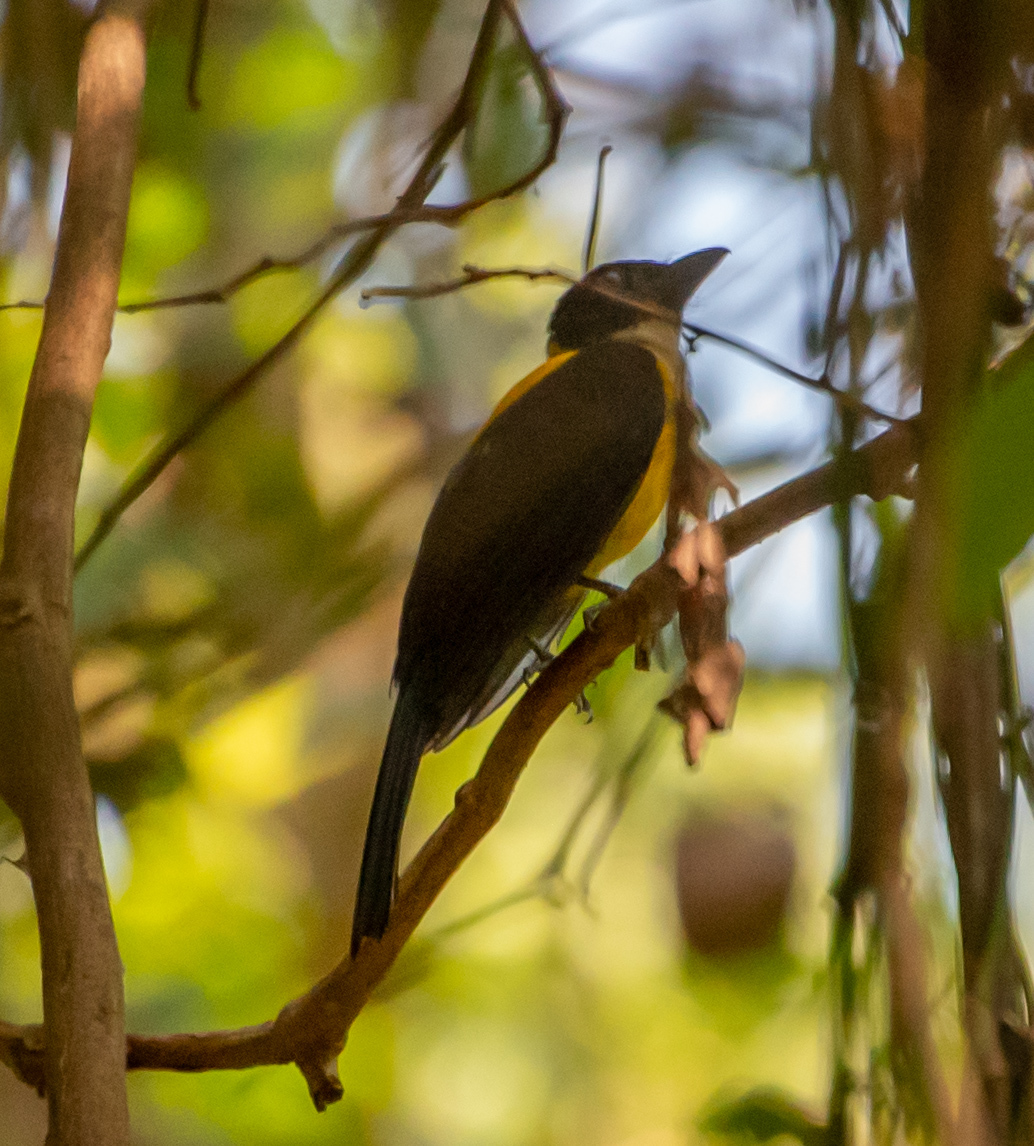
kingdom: Animalia
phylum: Chordata
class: Aves
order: Passeriformes
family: Thraupidae
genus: Lanio
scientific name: Lanio leucothorax
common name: White-throated shrike-tanager
